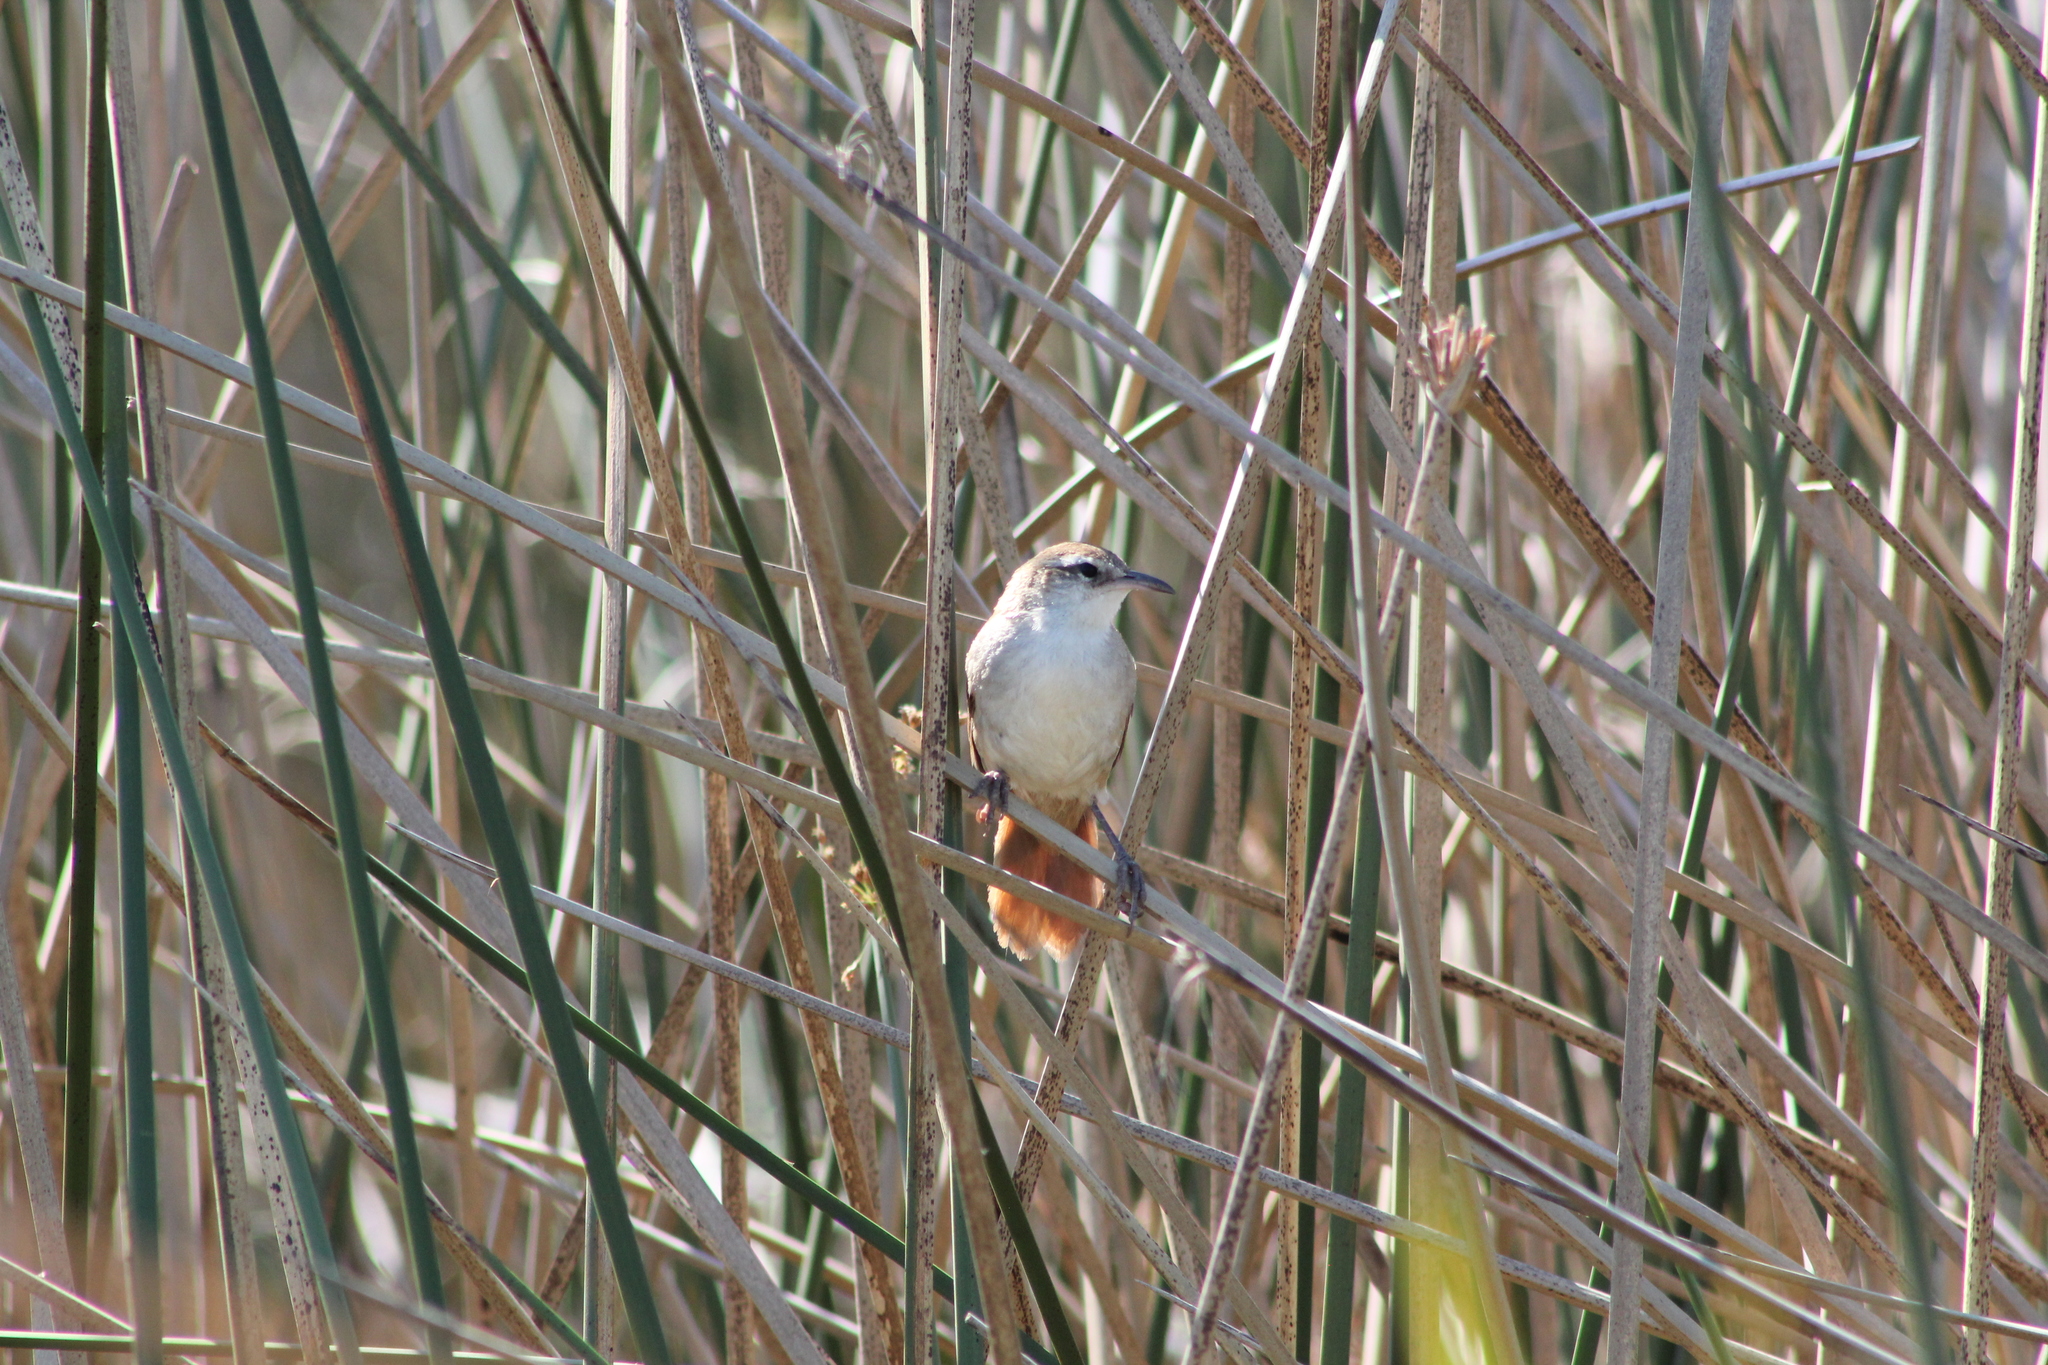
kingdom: Animalia
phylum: Chordata
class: Aves
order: Passeriformes
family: Furnariidae
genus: Limnornis
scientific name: Limnornis curvirostris
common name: Curve-billed reedhaunter
